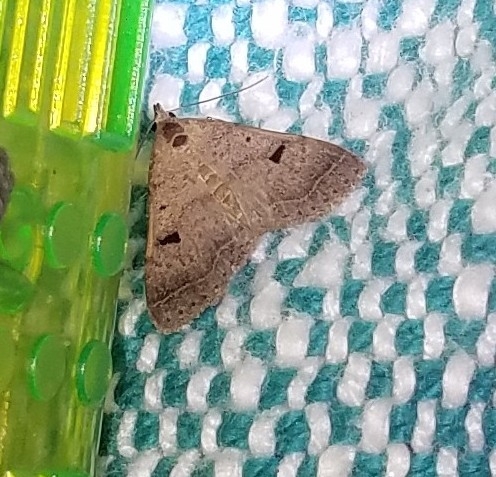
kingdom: Animalia
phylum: Arthropoda
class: Insecta
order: Lepidoptera
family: Erebidae
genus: Bleptina
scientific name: Bleptina caradrinalis
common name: Bent-winged owlet
